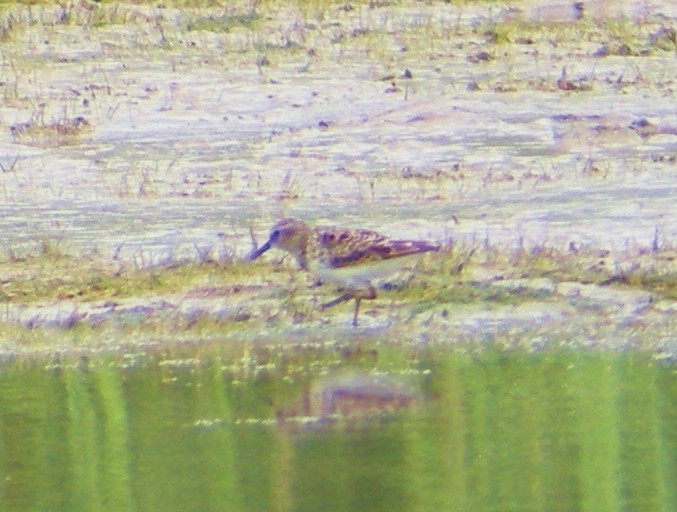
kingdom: Animalia
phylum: Chordata
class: Aves
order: Charadriiformes
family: Scolopacidae
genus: Calidris
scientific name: Calidris minutilla
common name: Least sandpiper
